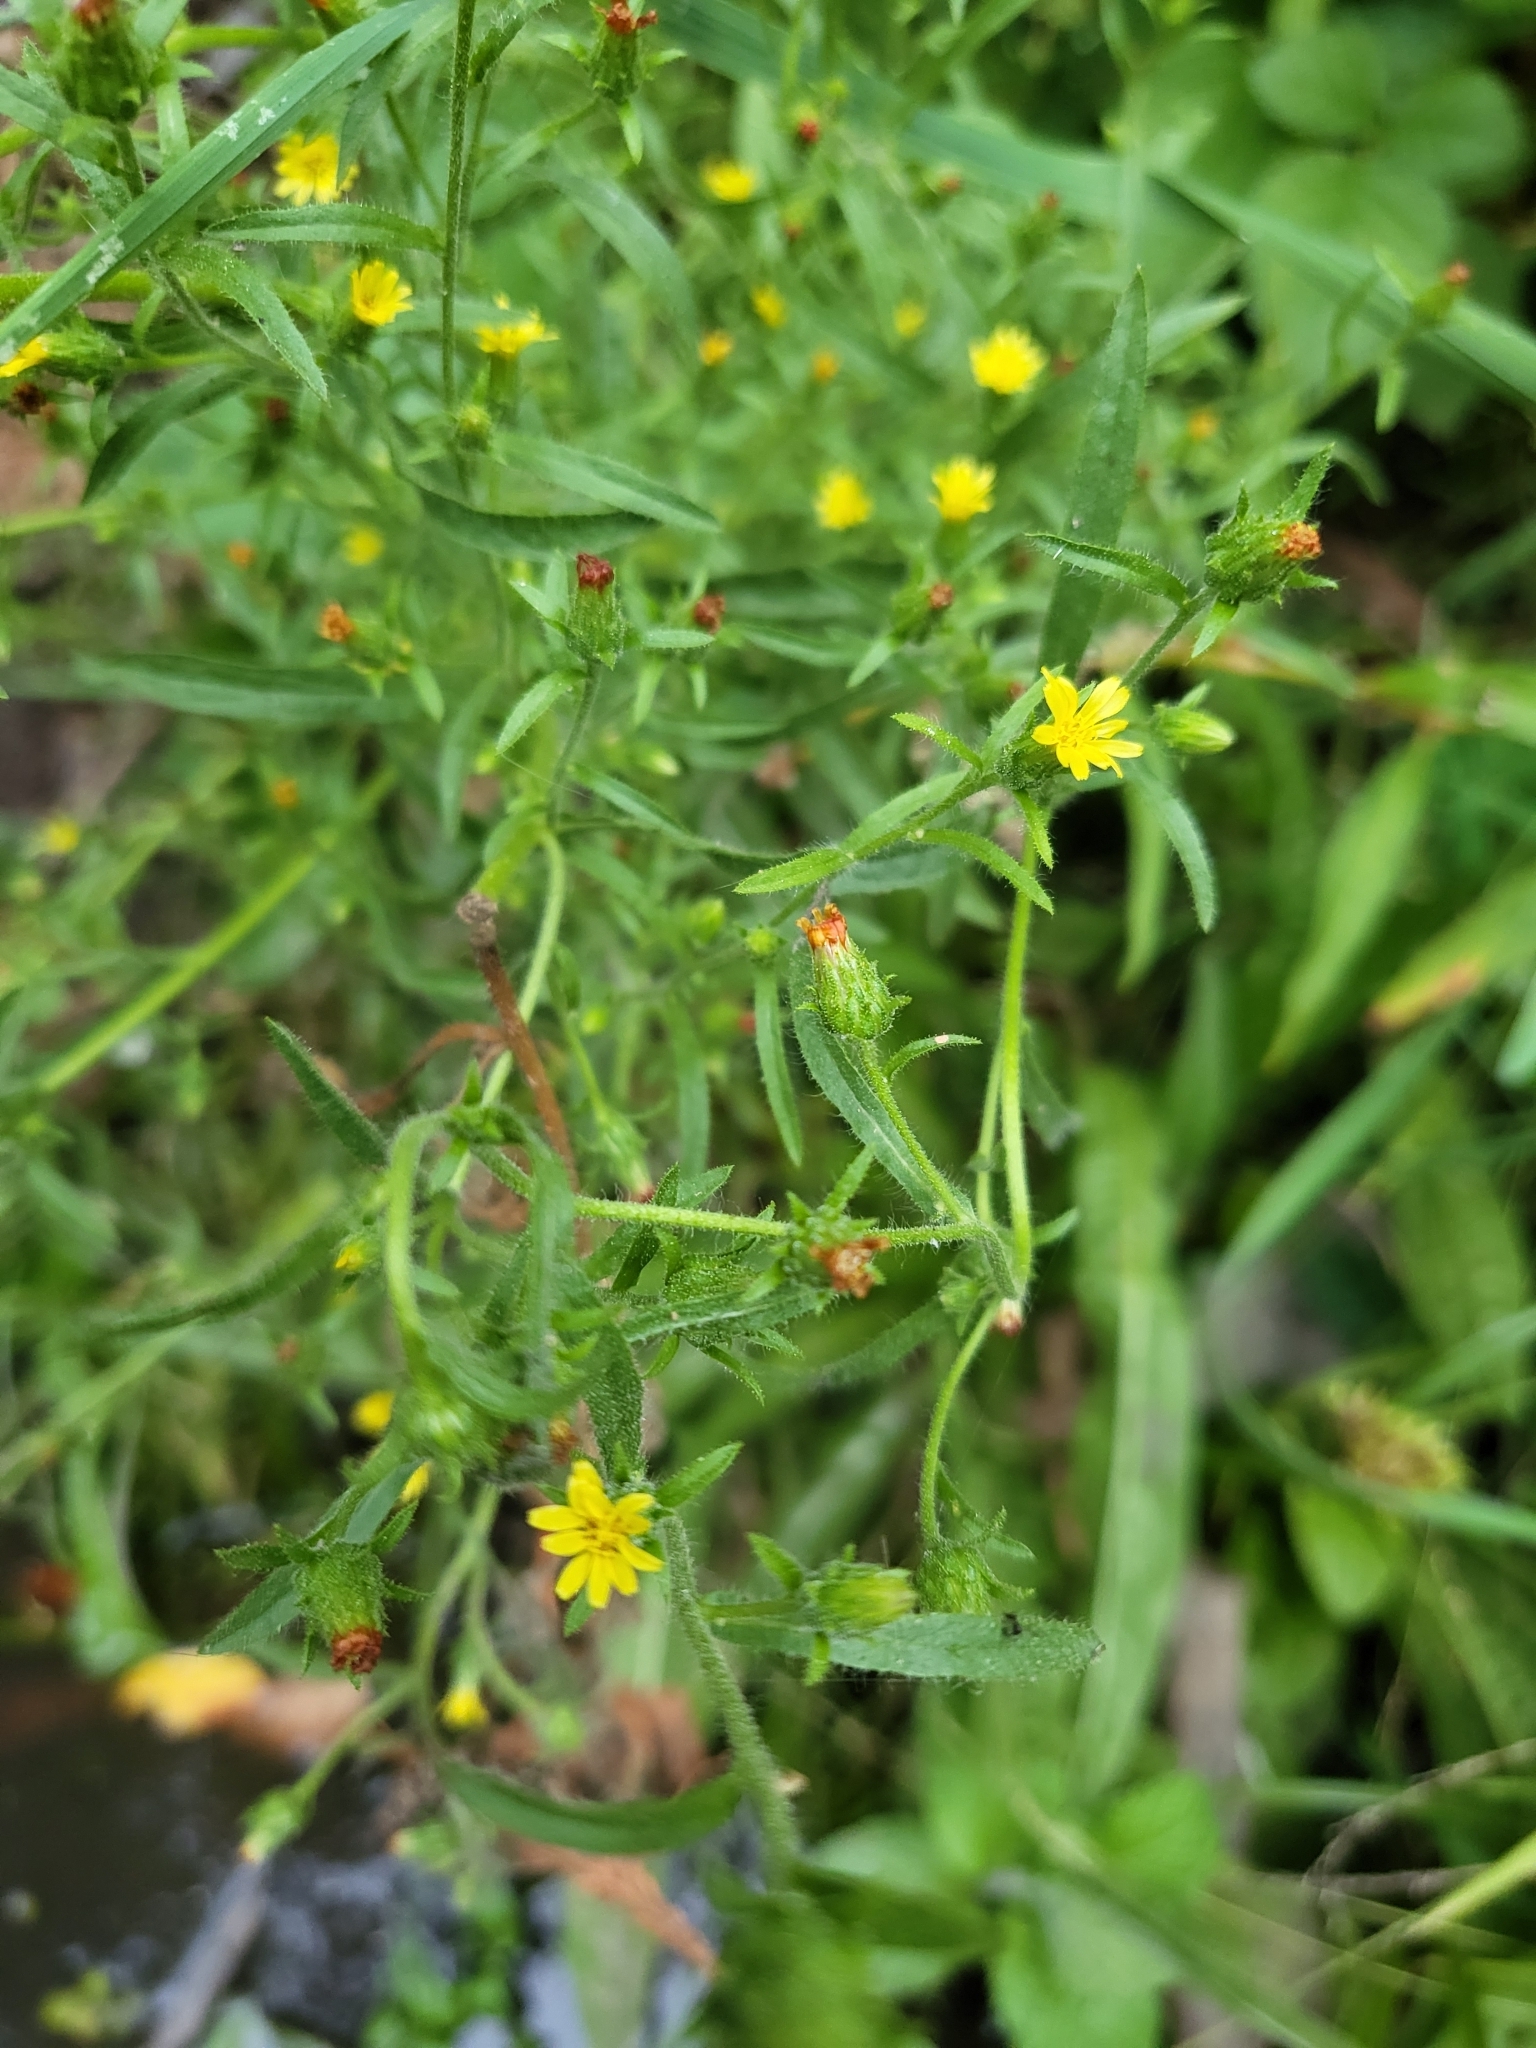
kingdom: Plantae
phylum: Tracheophyta
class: Magnoliopsida
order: Asterales
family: Asteraceae
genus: Dittrichia
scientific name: Dittrichia graveolens
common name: Stinking fleabane
